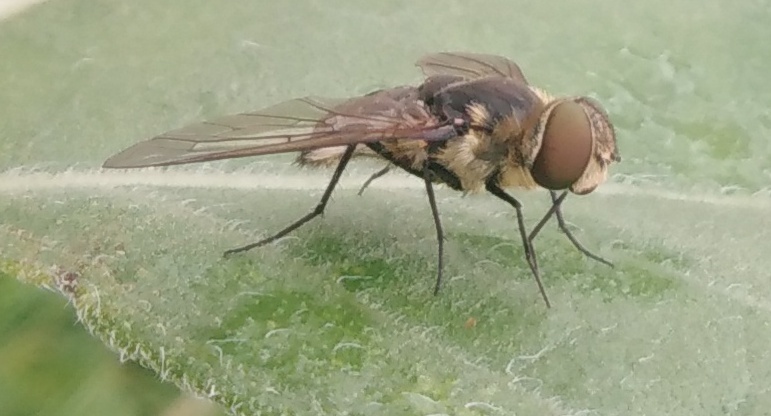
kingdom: Plantae
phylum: Tracheophyta
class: Magnoliopsida
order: Caryophyllales
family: Amaranthaceae
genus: Atriplex
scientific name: Atriplex tatarica
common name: Tatarian orache
